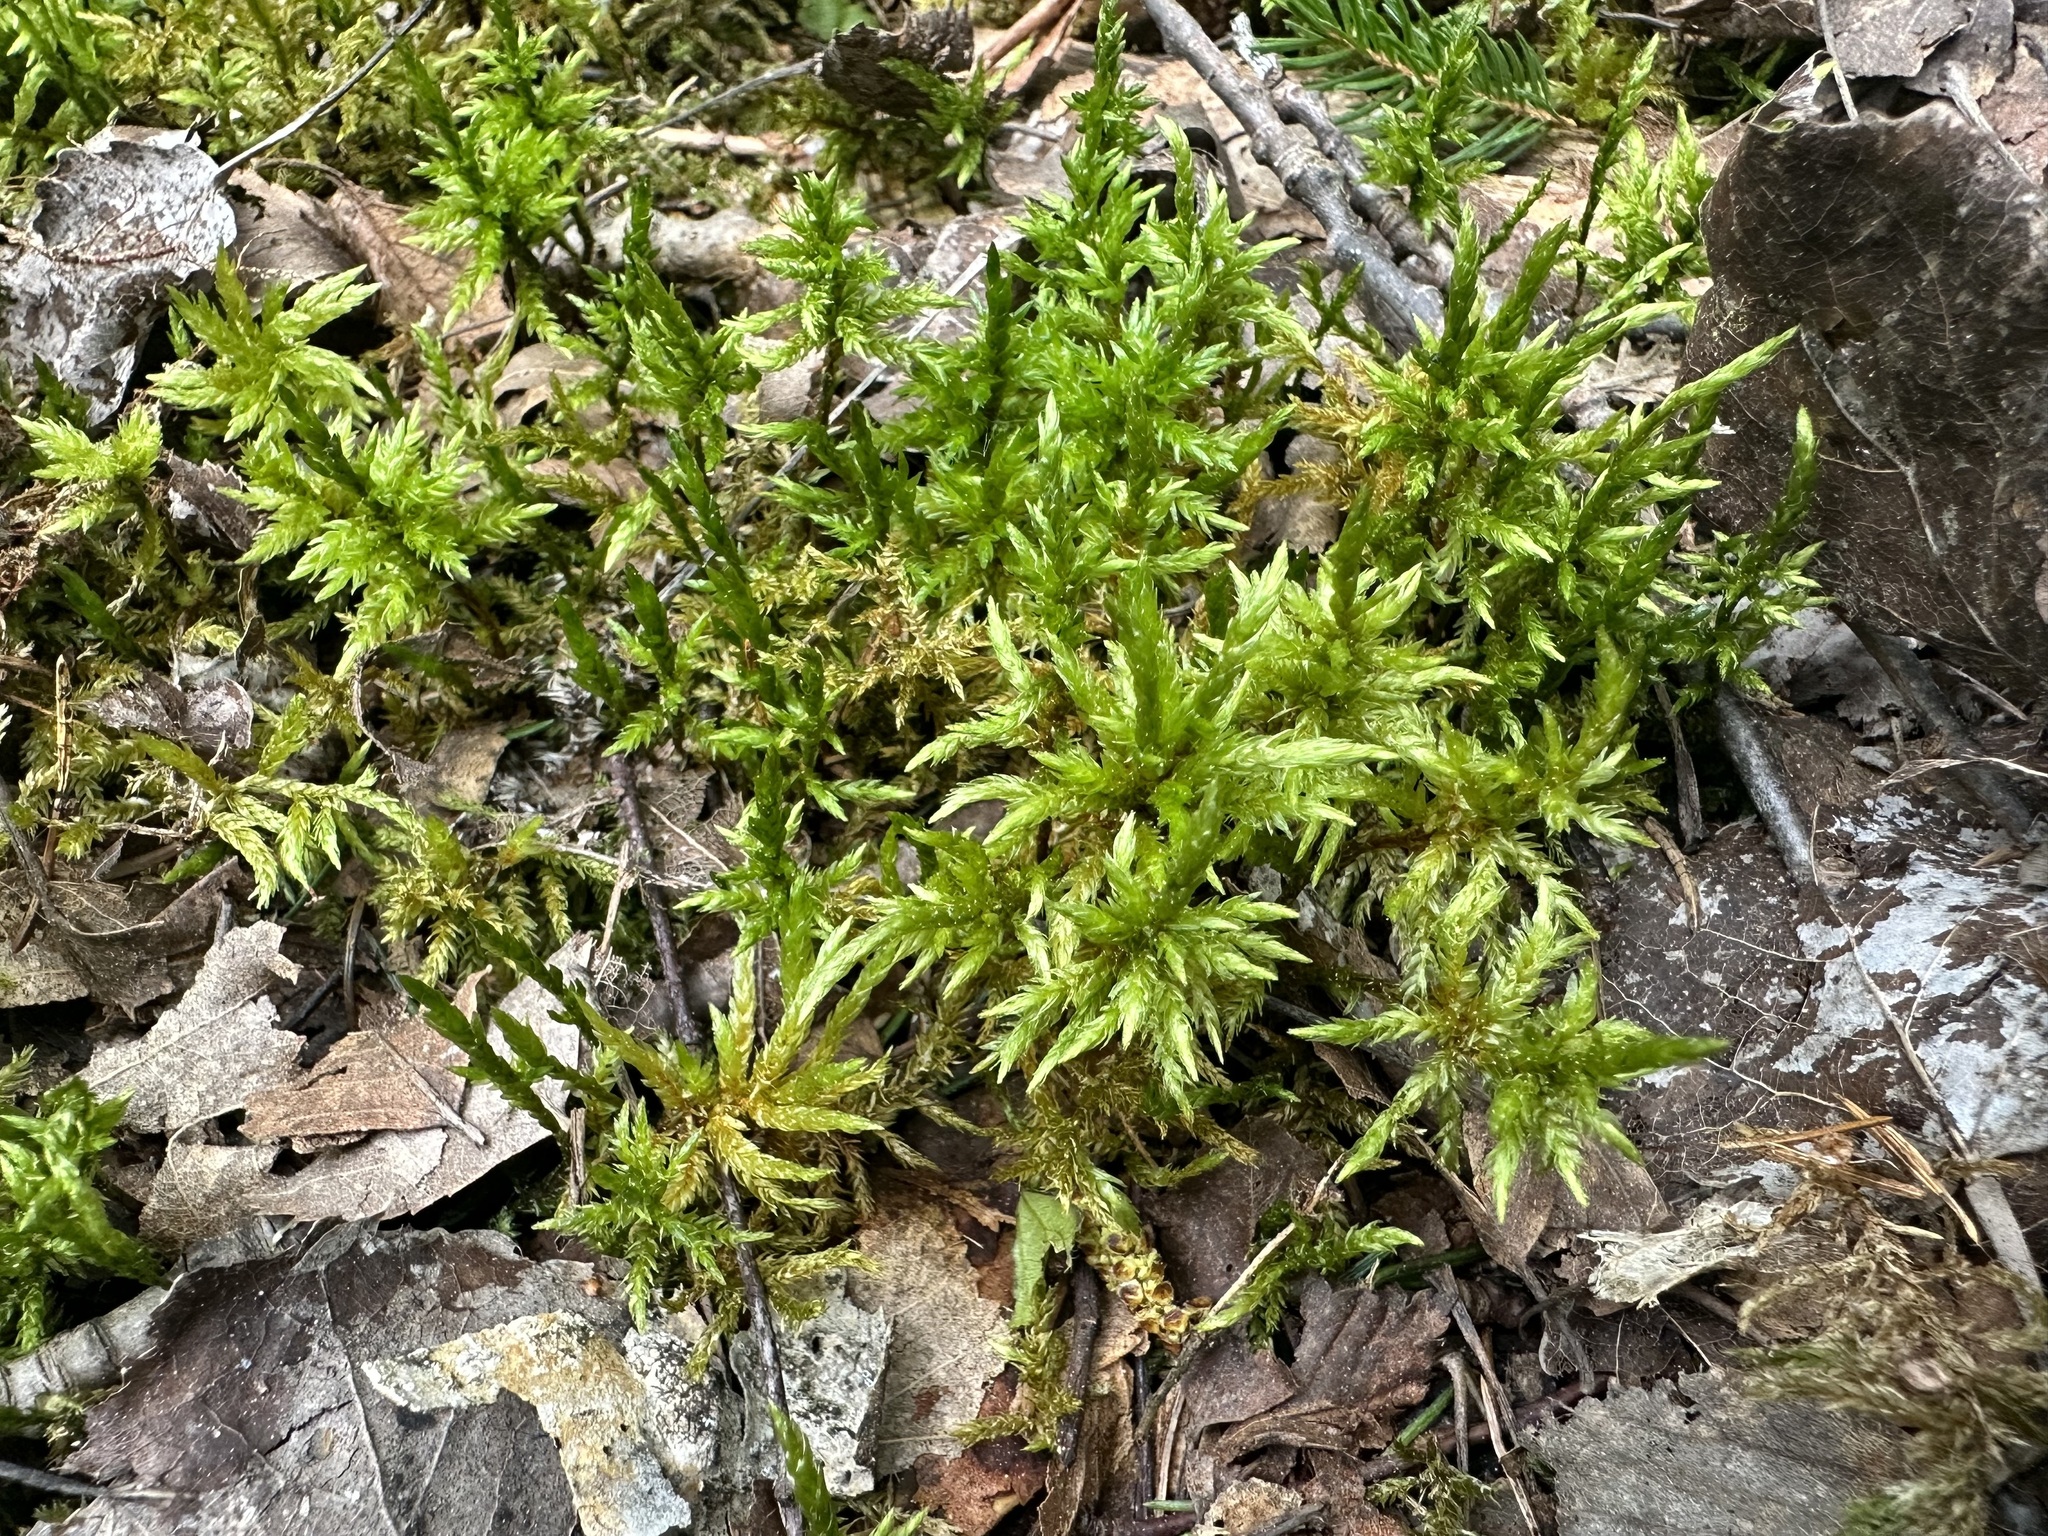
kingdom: Plantae
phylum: Bryophyta
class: Bryopsida
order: Hypnales
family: Climaciaceae
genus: Climacium
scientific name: Climacium dendroides
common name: Northern tree moss
